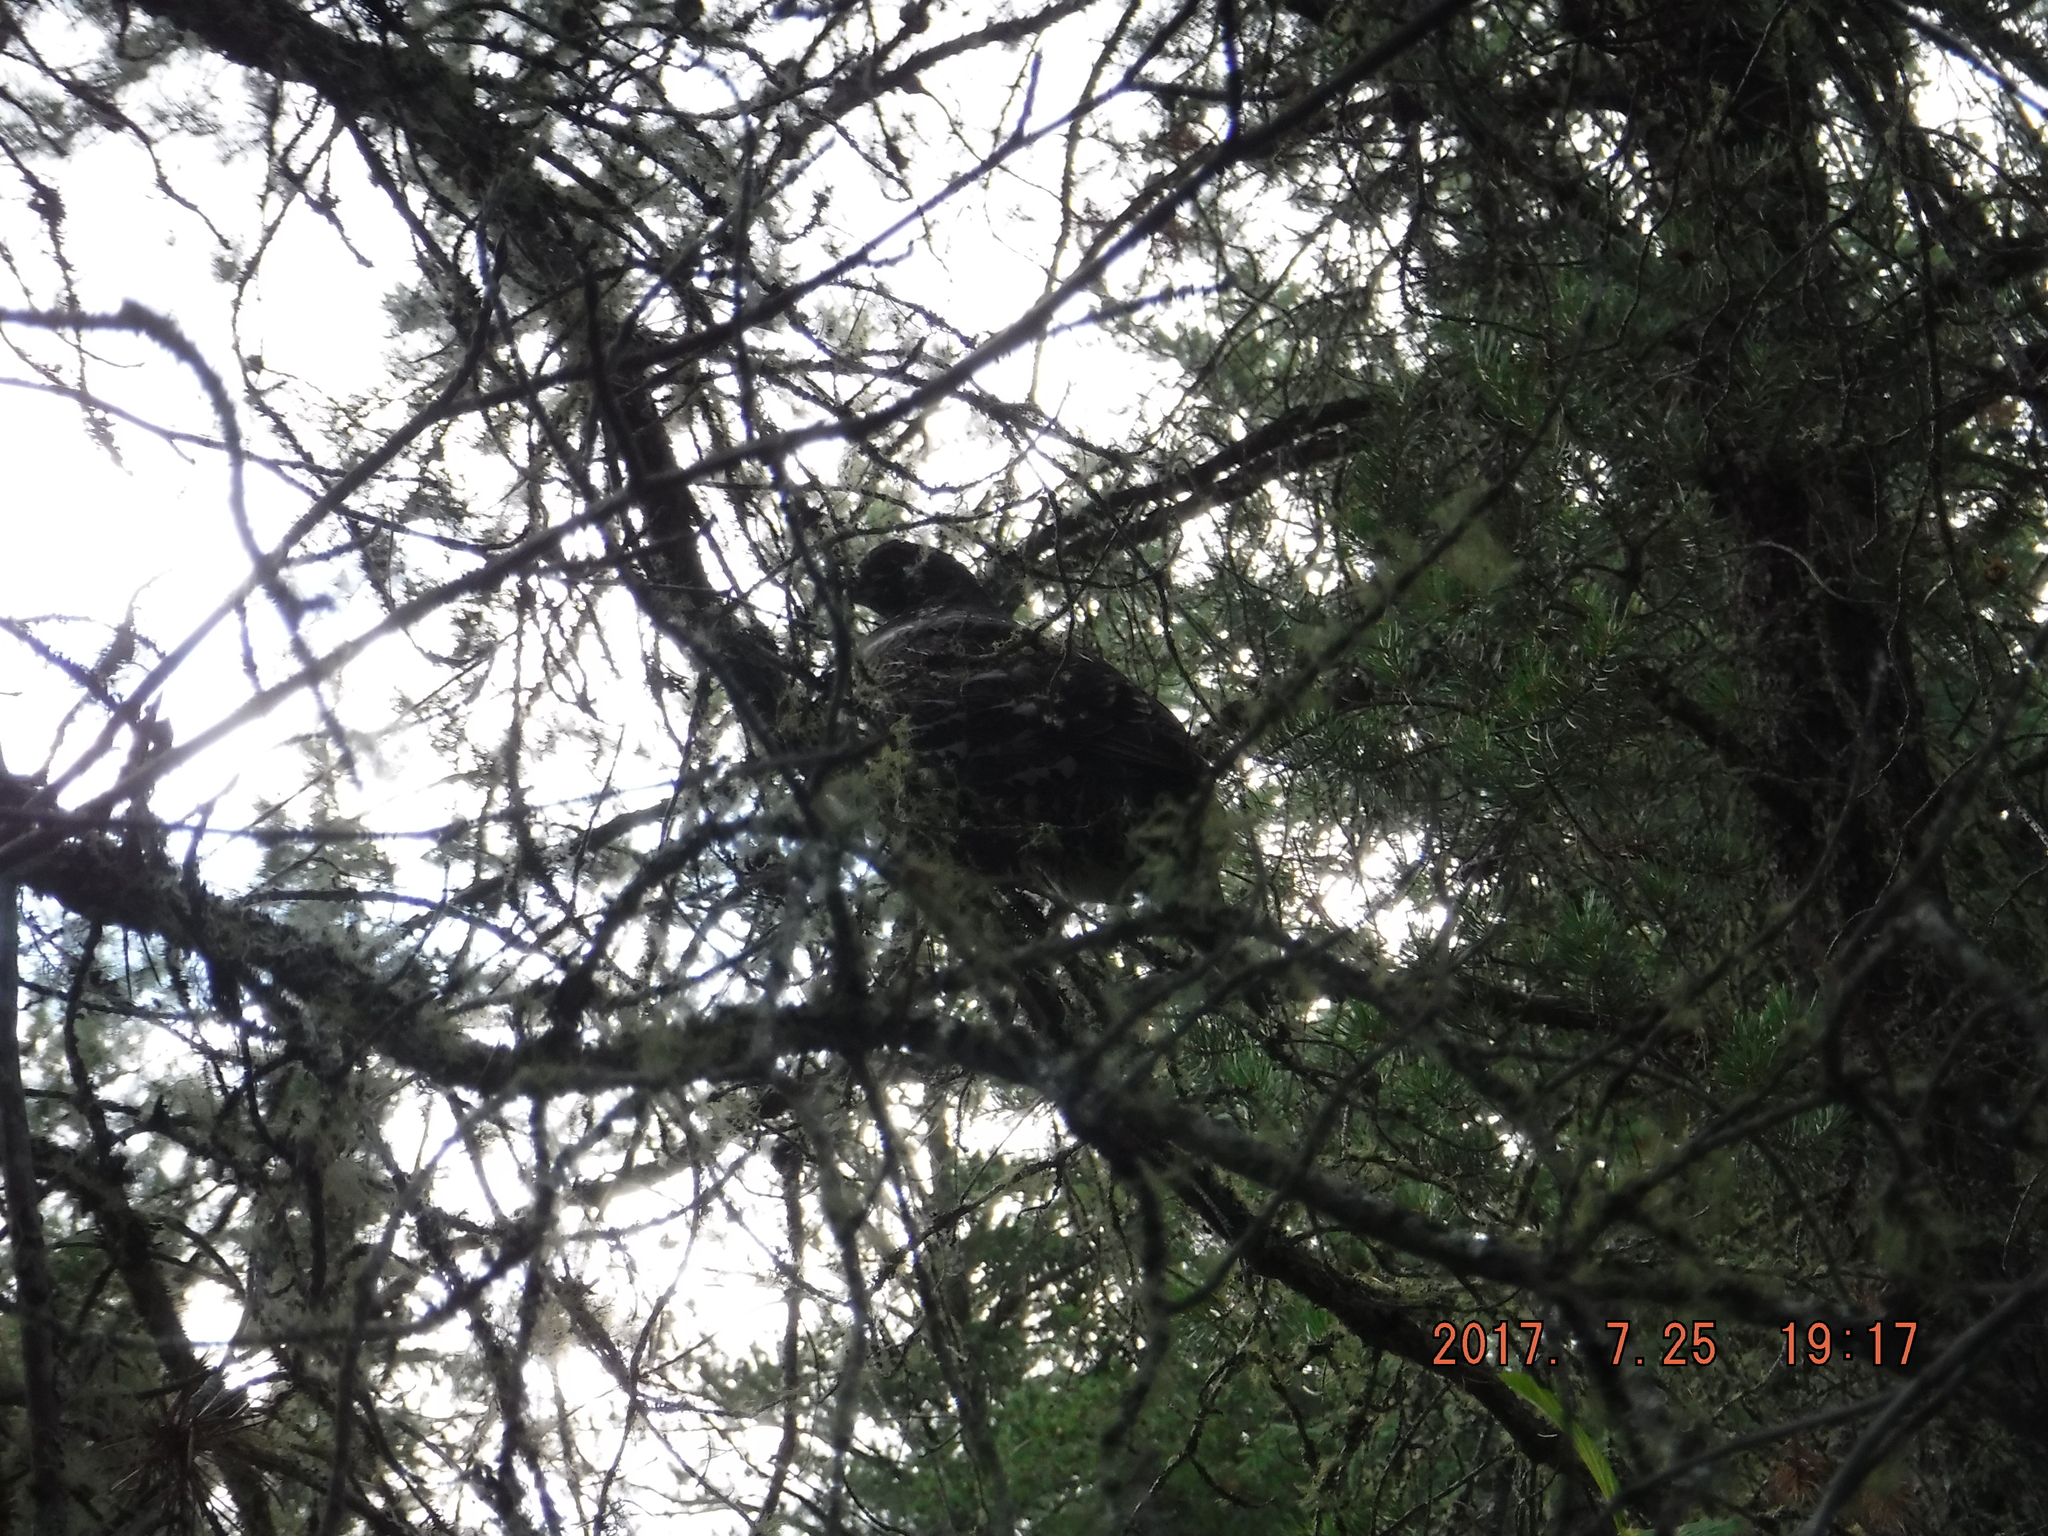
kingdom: Animalia
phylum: Chordata
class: Aves
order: Galliformes
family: Phasianidae
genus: Canachites
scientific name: Canachites canadensis
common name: Spruce grouse
